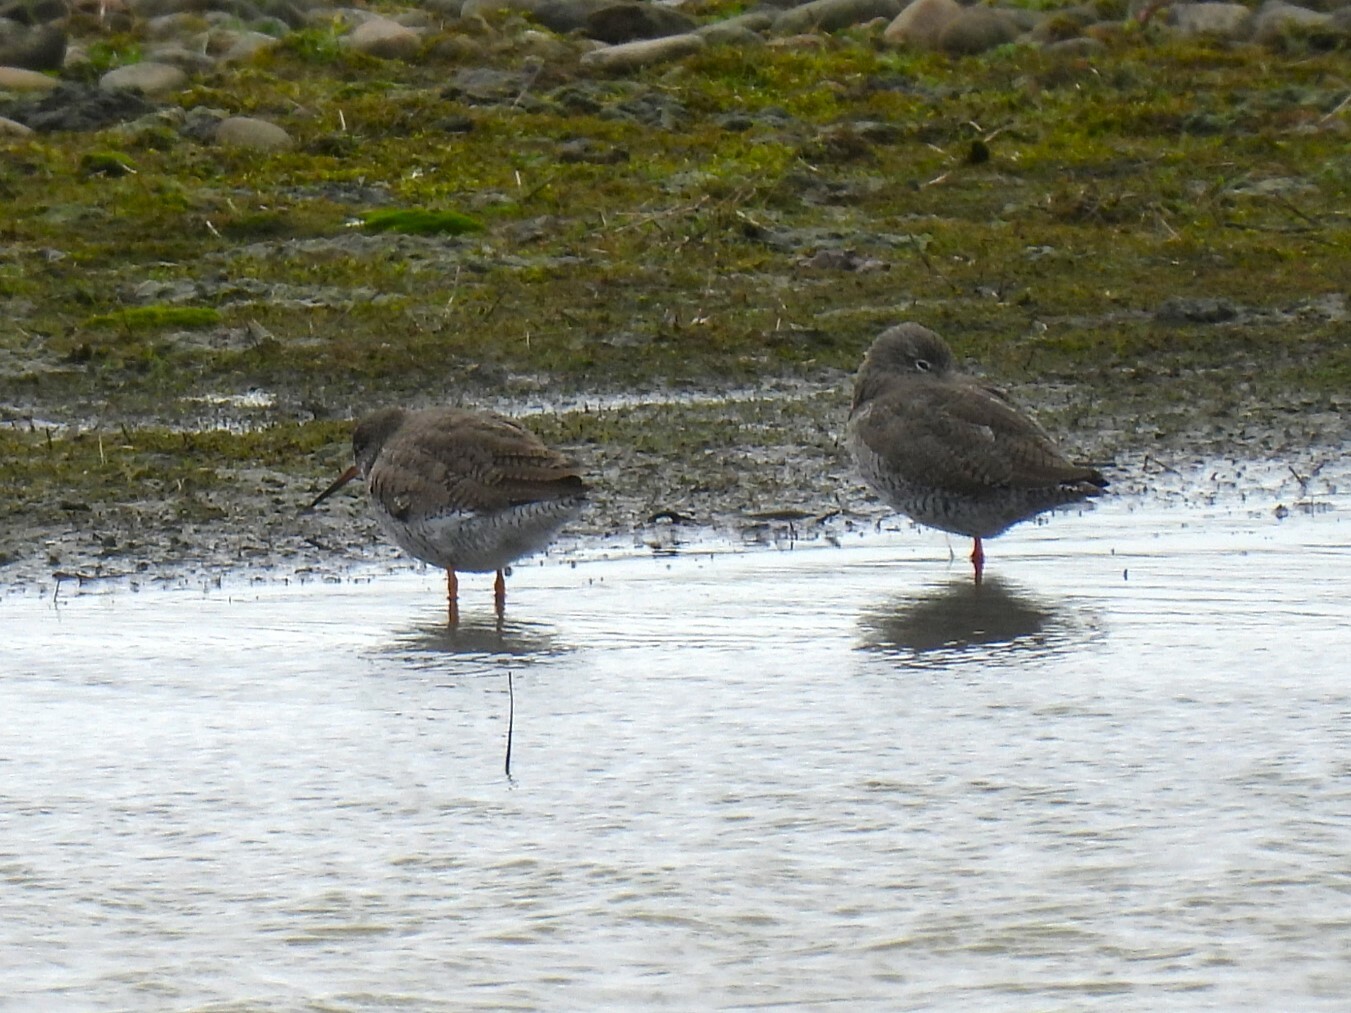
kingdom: Animalia
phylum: Chordata
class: Aves
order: Charadriiformes
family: Scolopacidae
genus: Tringa
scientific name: Tringa totanus
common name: Common redshank
